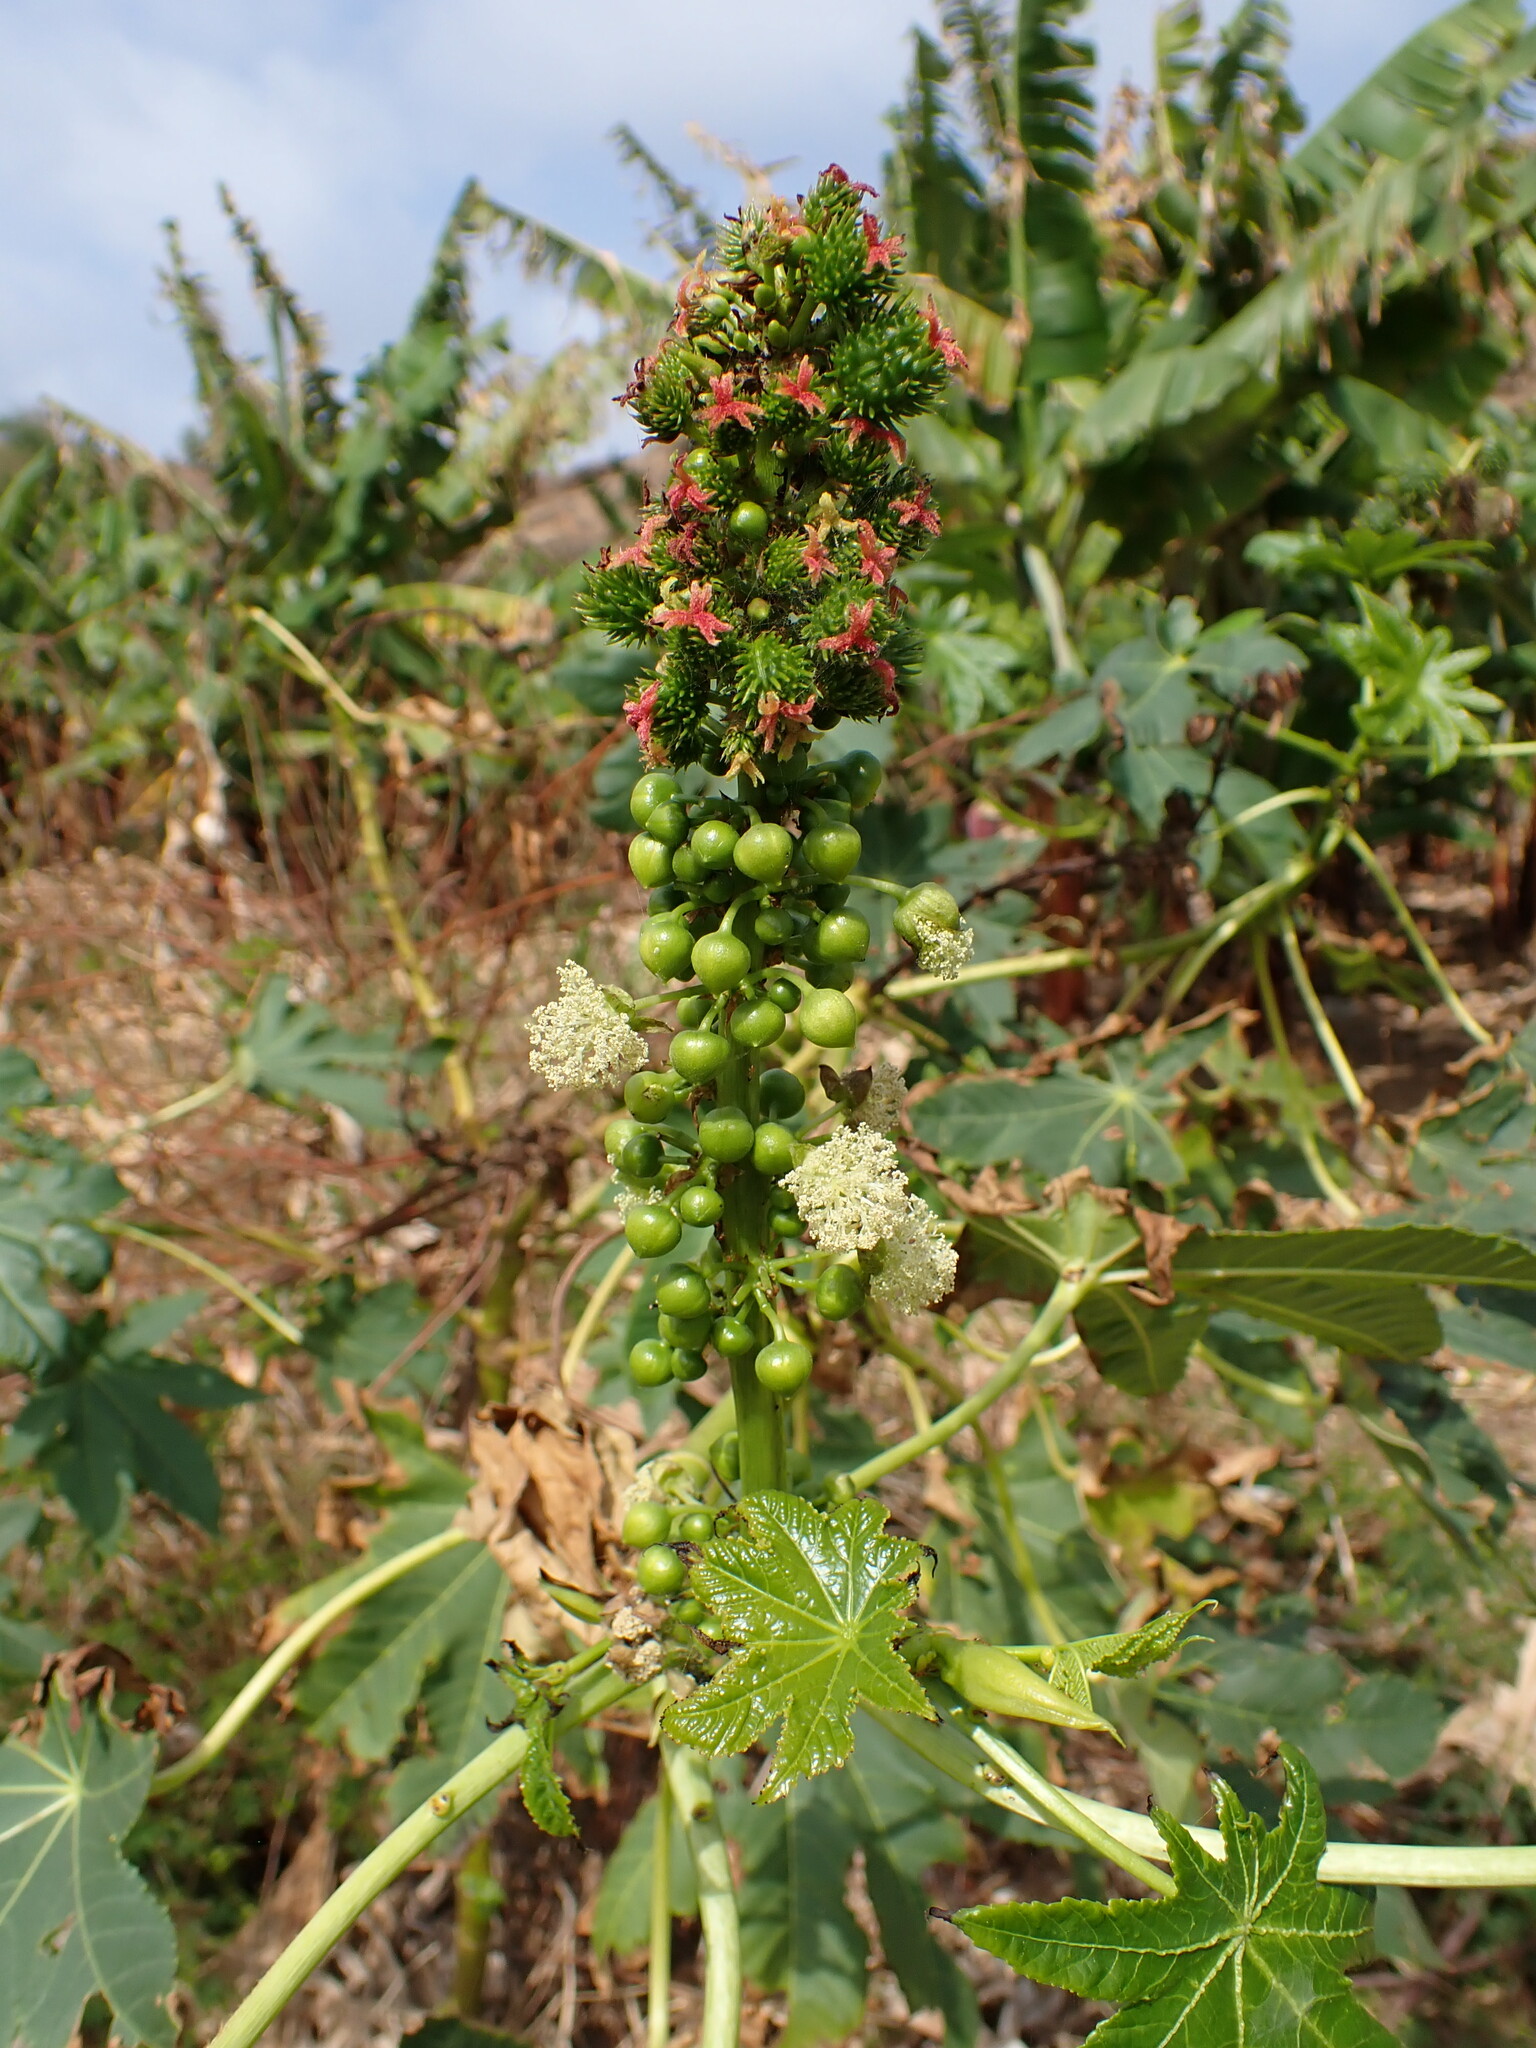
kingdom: Plantae
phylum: Tracheophyta
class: Magnoliopsida
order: Malpighiales
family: Euphorbiaceae
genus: Ricinus
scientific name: Ricinus communis
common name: Castor-oil-plant
